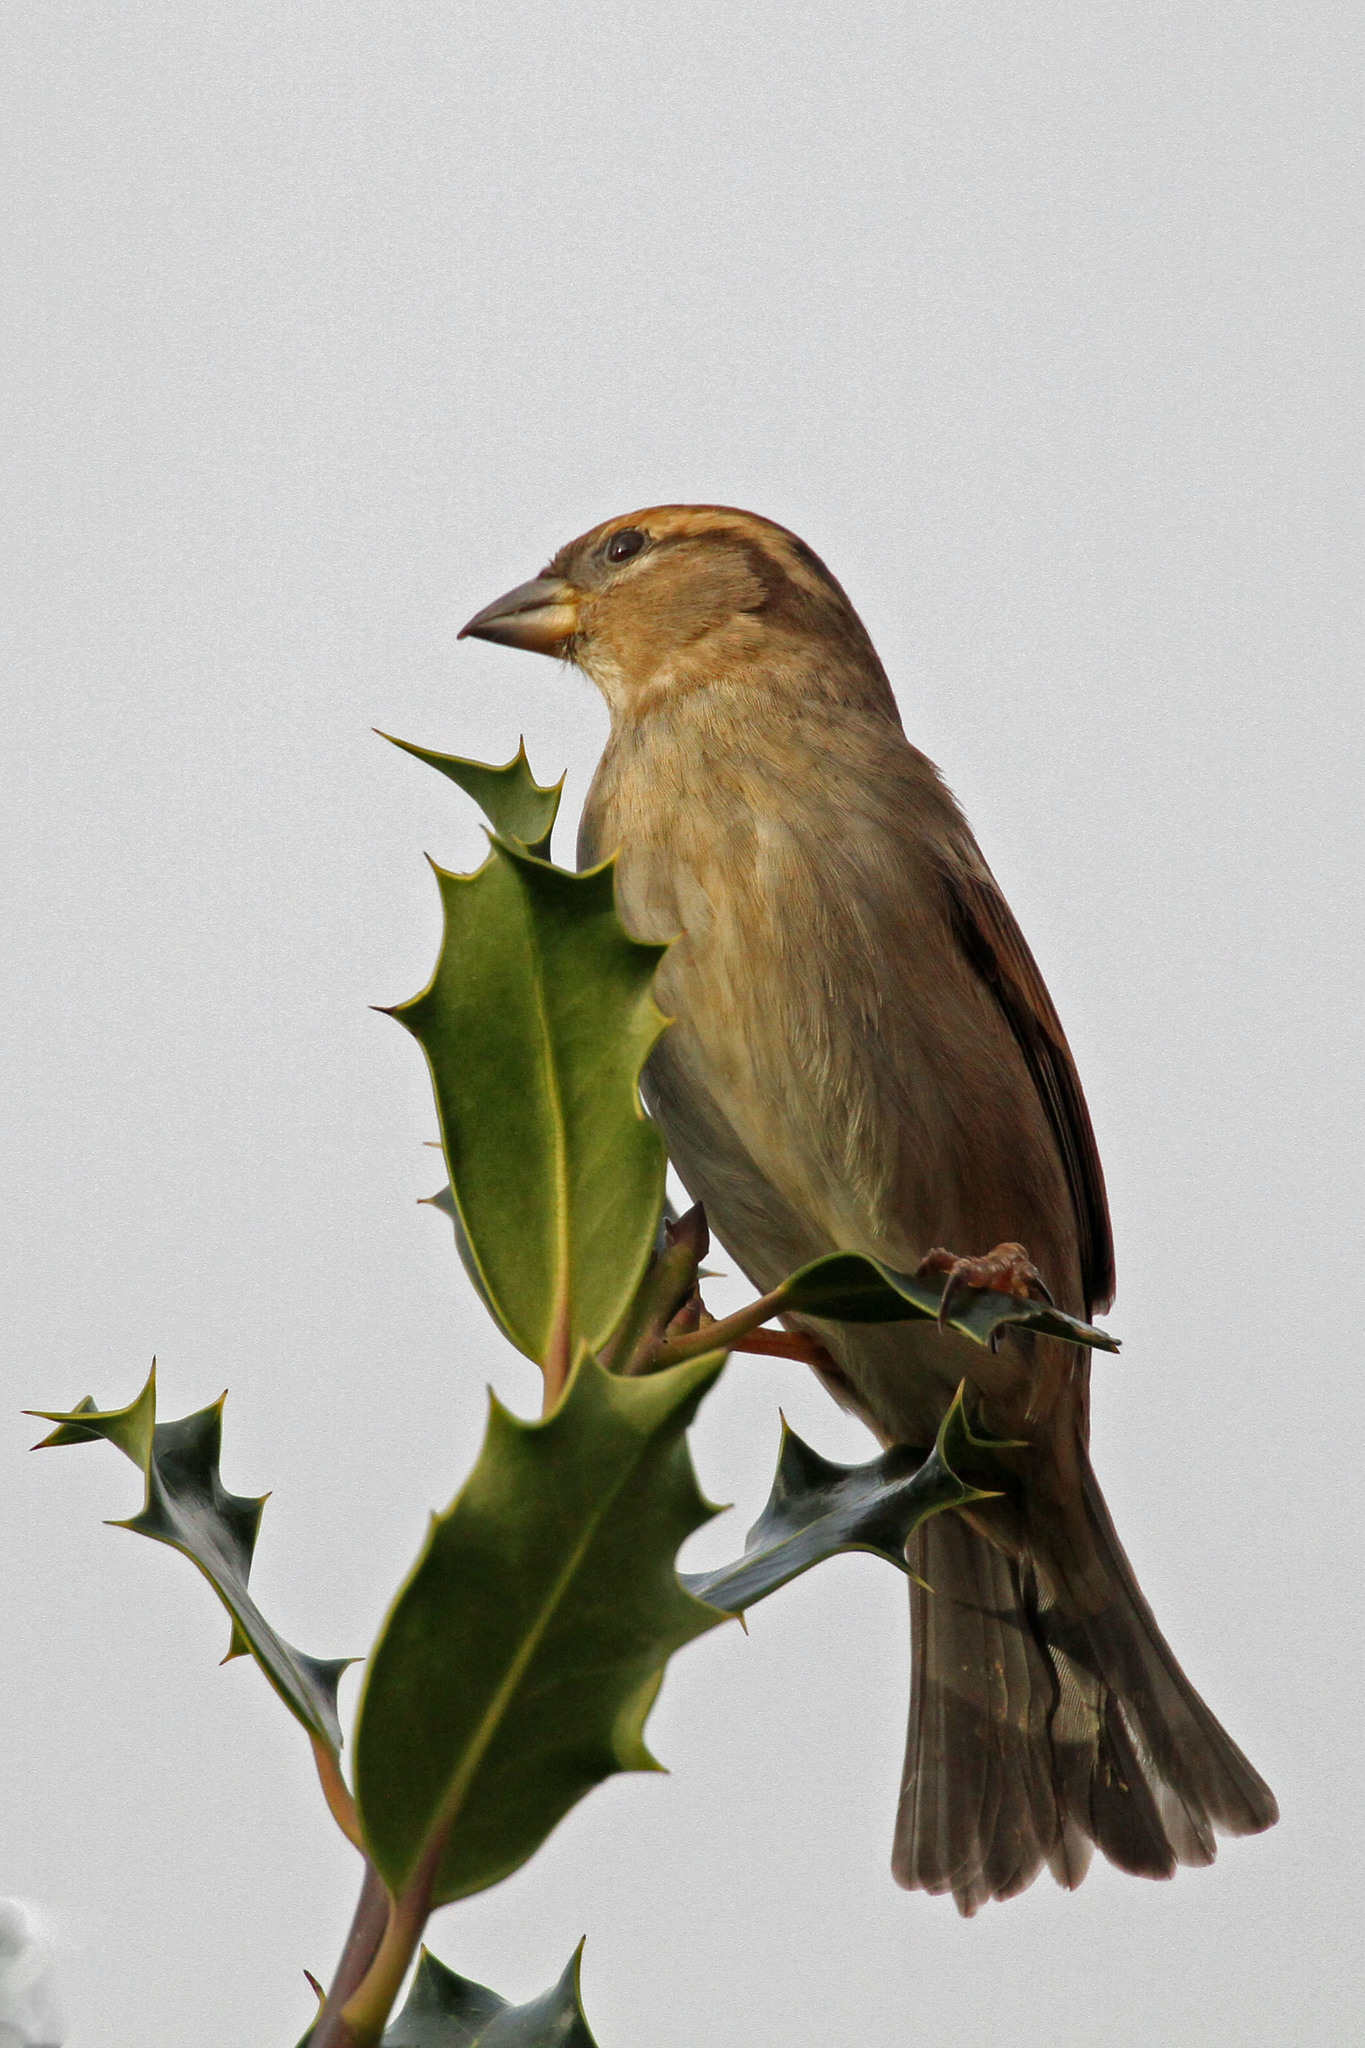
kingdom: Animalia
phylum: Chordata
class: Aves
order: Passeriformes
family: Passeridae
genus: Passer
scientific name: Passer domesticus
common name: House sparrow
